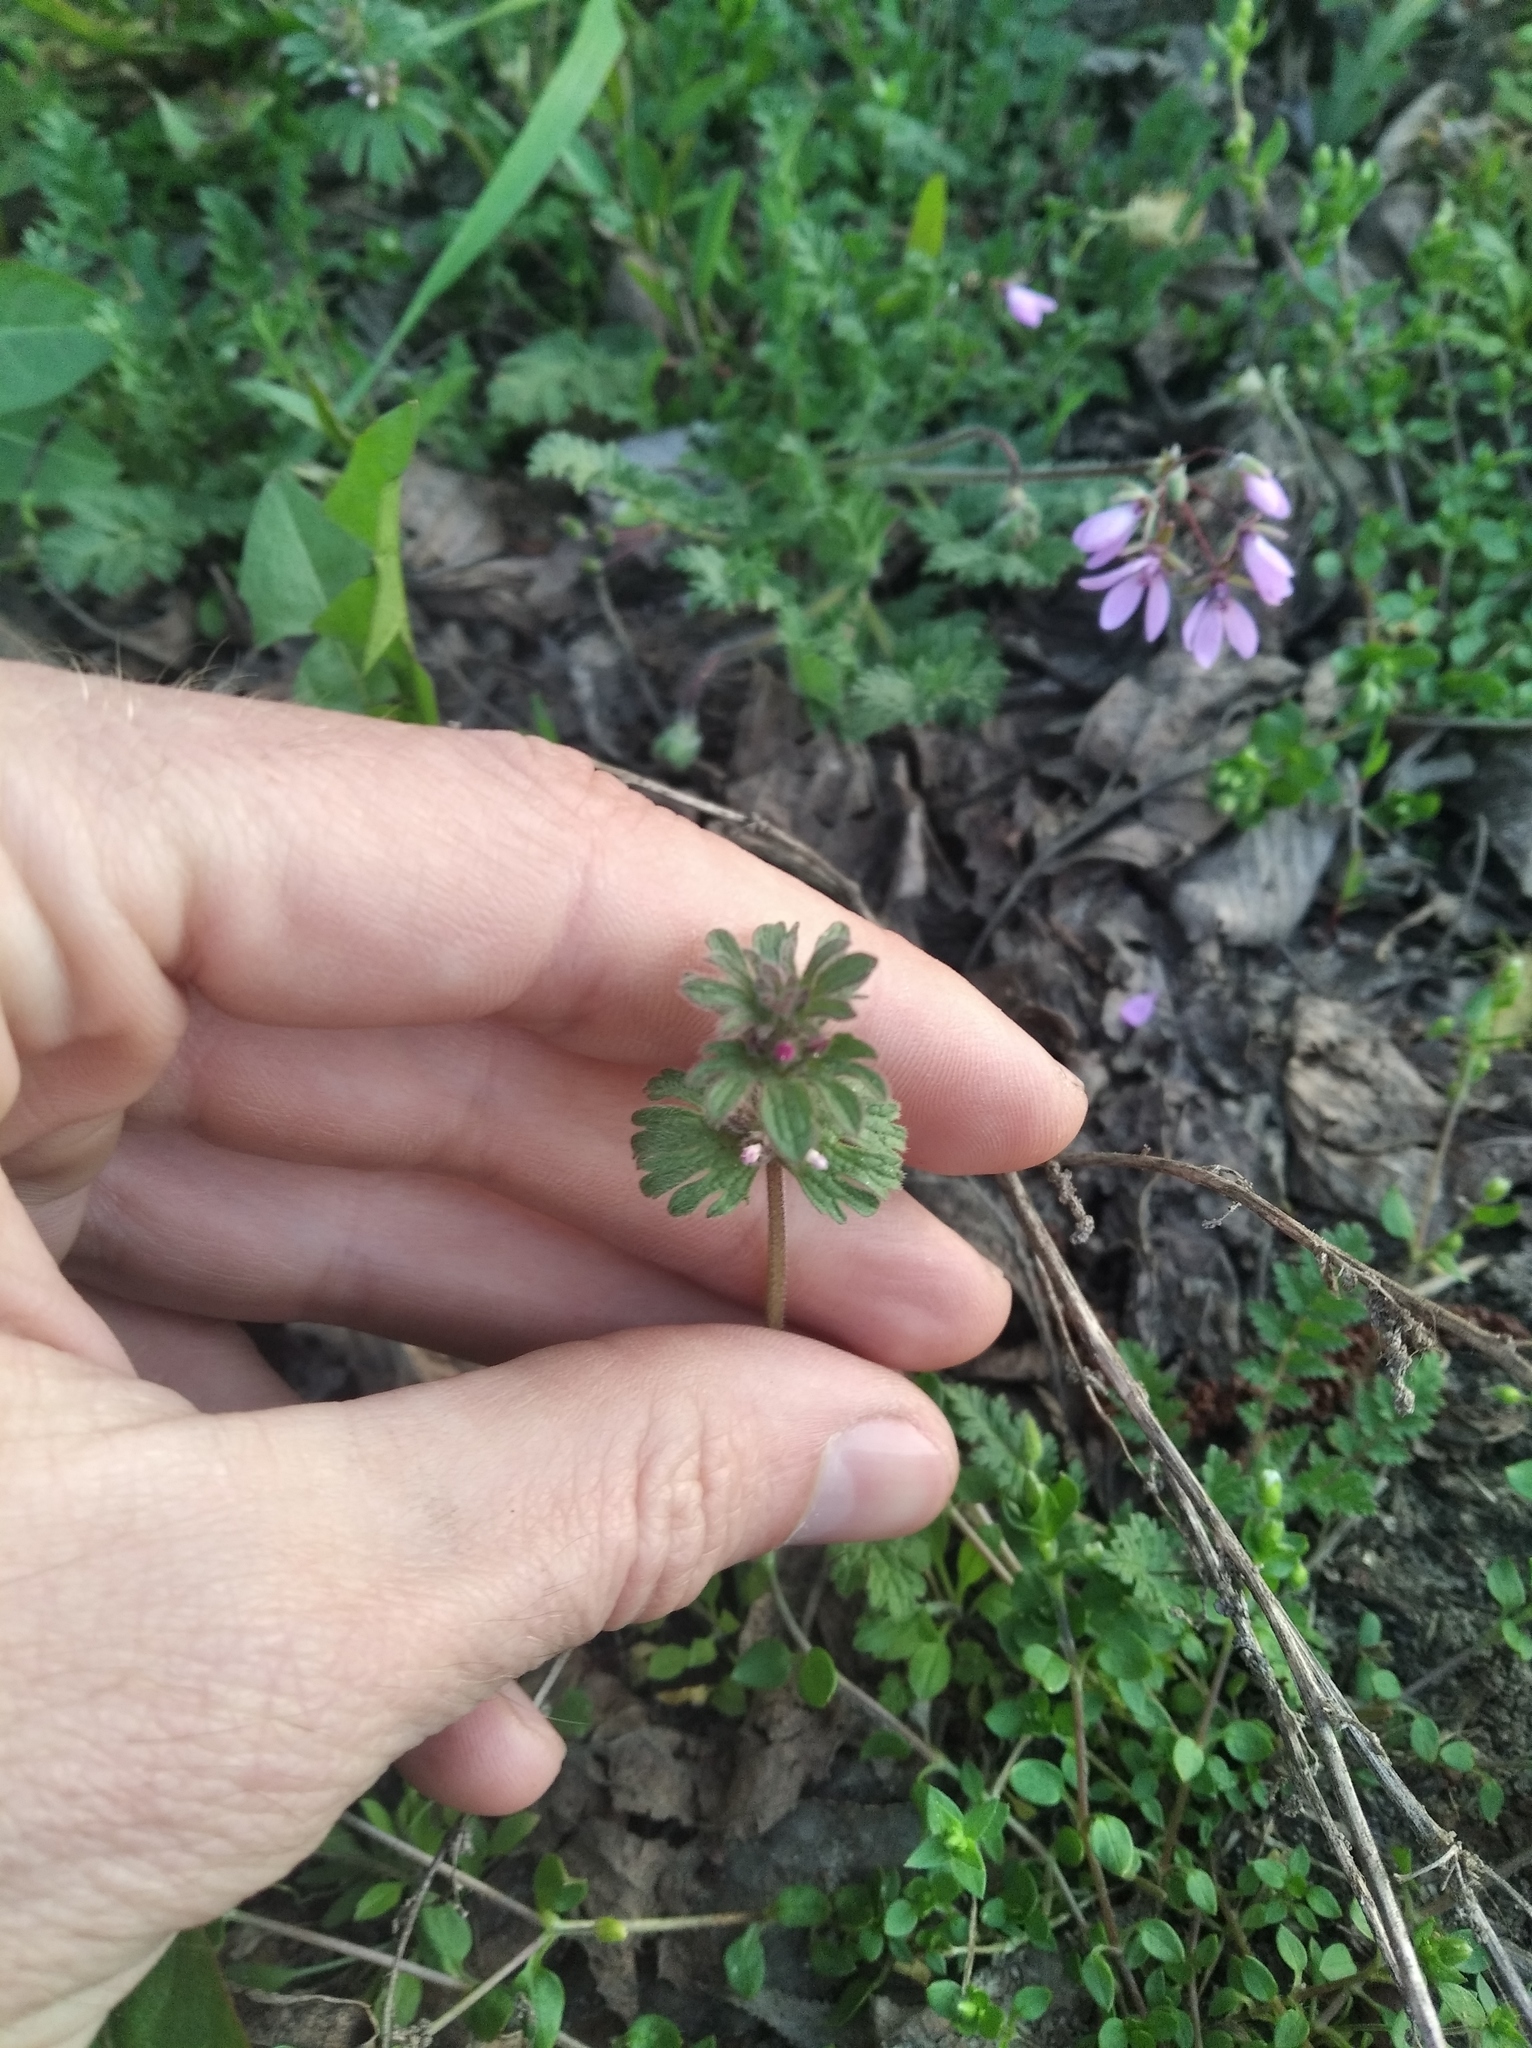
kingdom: Plantae
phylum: Tracheophyta
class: Magnoliopsida
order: Lamiales
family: Lamiaceae
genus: Lamium
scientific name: Lamium amplexicaule
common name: Henbit dead-nettle
